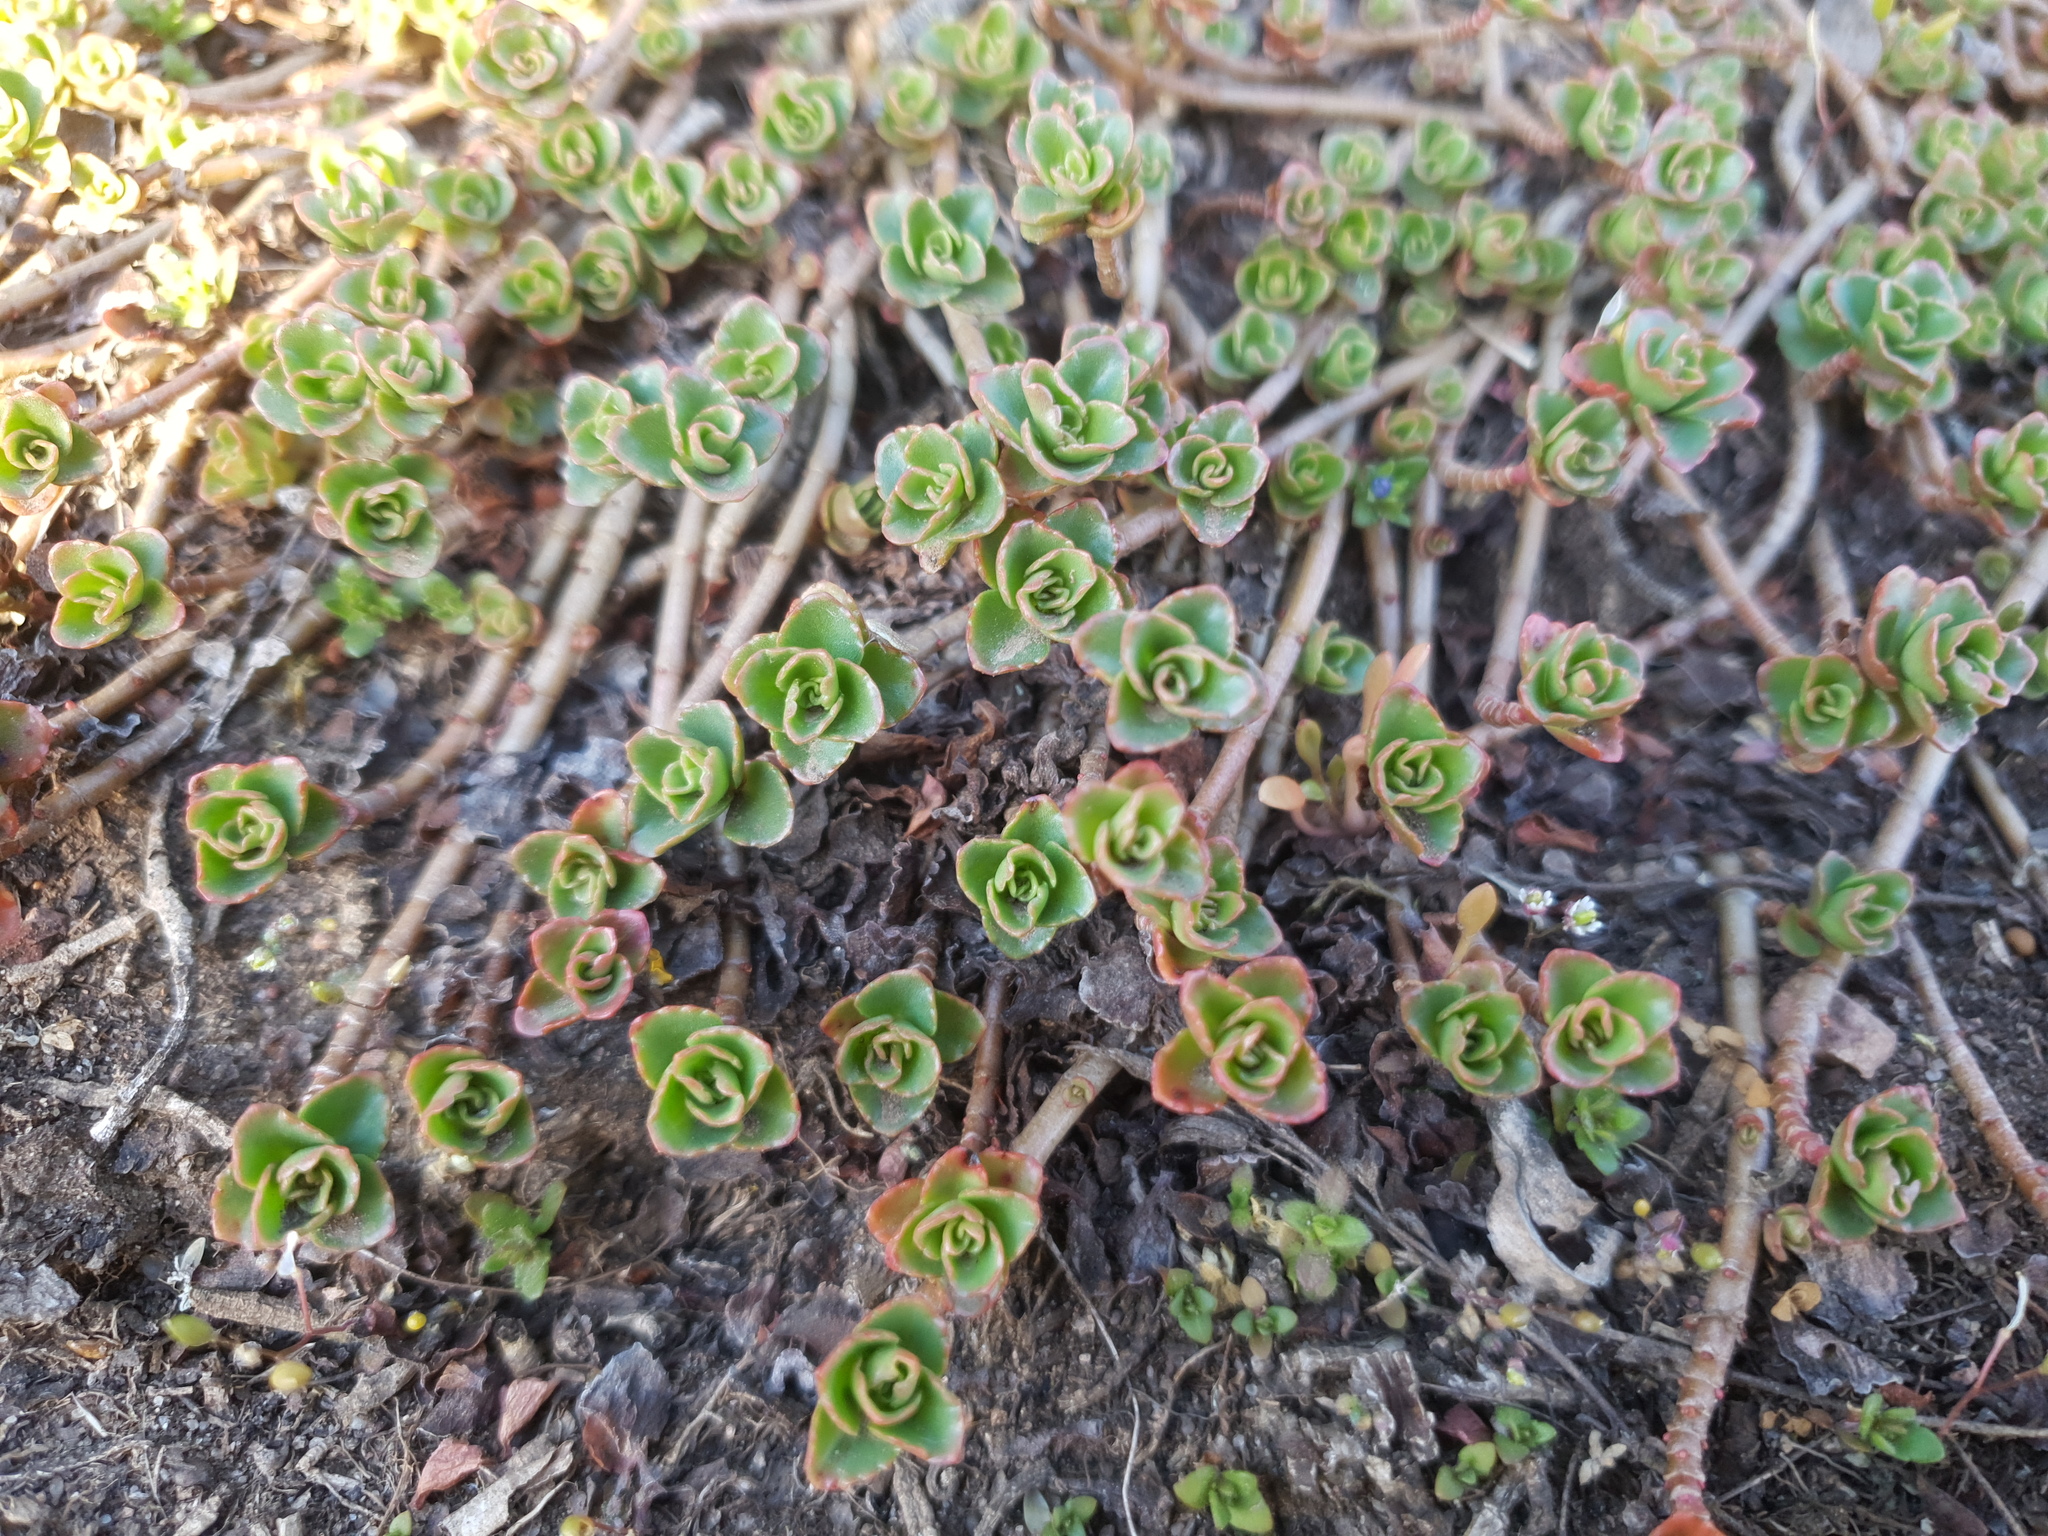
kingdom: Plantae
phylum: Tracheophyta
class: Magnoliopsida
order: Saxifragales
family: Crassulaceae
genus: Phedimus
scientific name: Phedimus spurius
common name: Caucasian stonecrop
